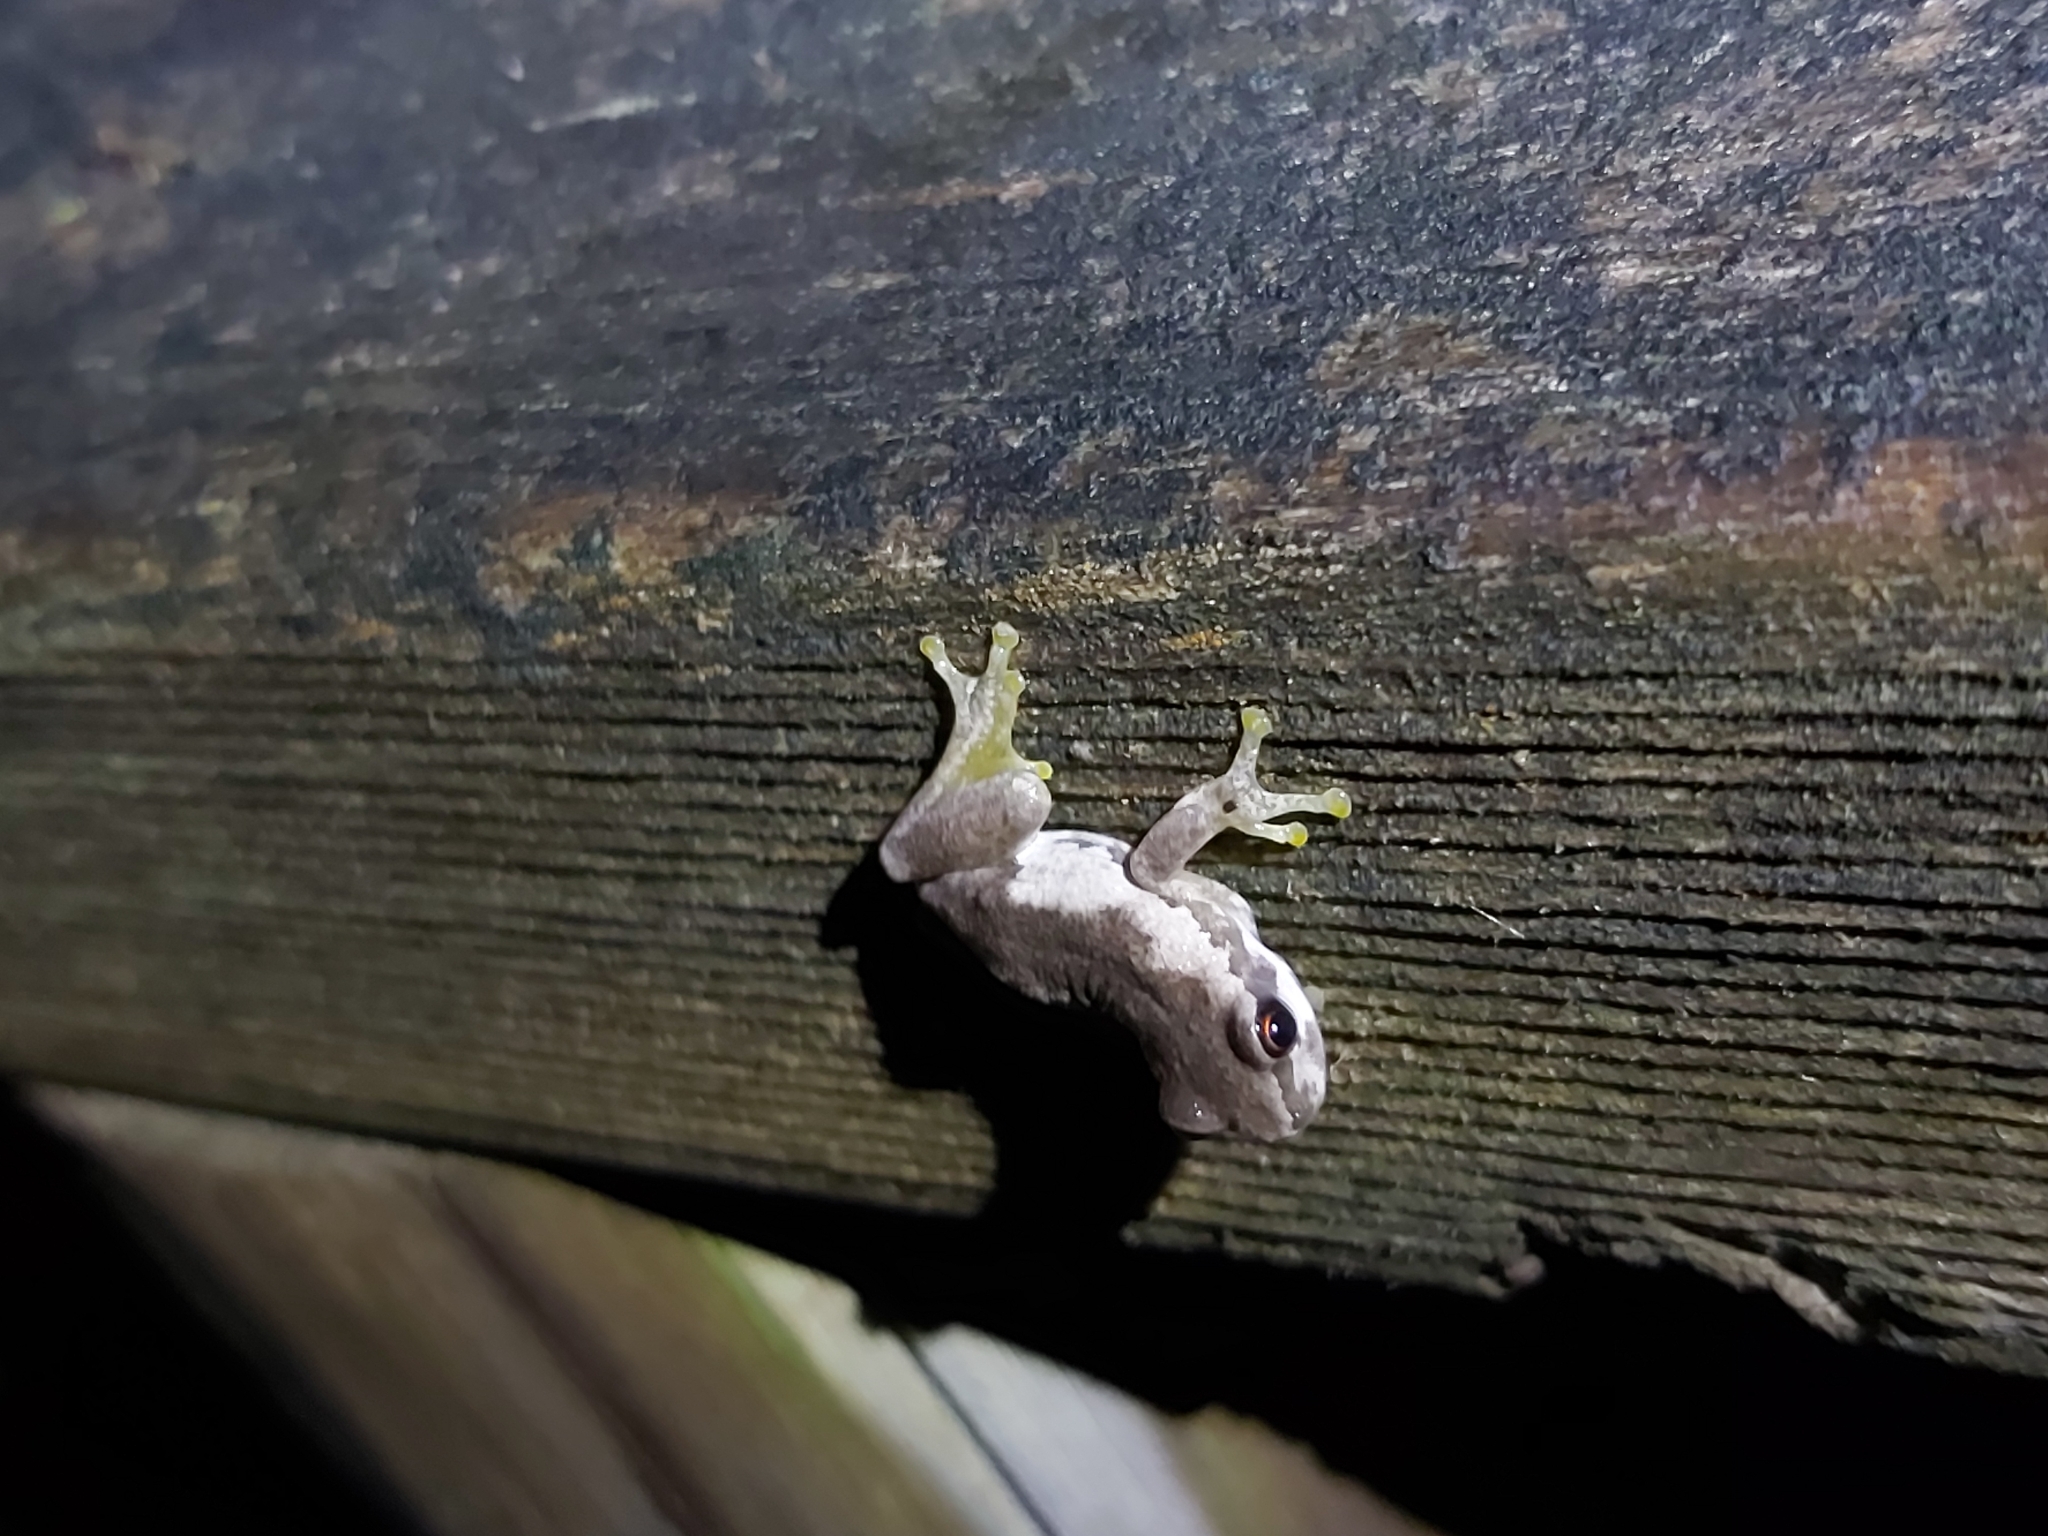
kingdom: Animalia
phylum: Chordata
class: Amphibia
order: Anura
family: Pelodryadidae
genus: Litoria
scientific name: Litoria quiritatus
